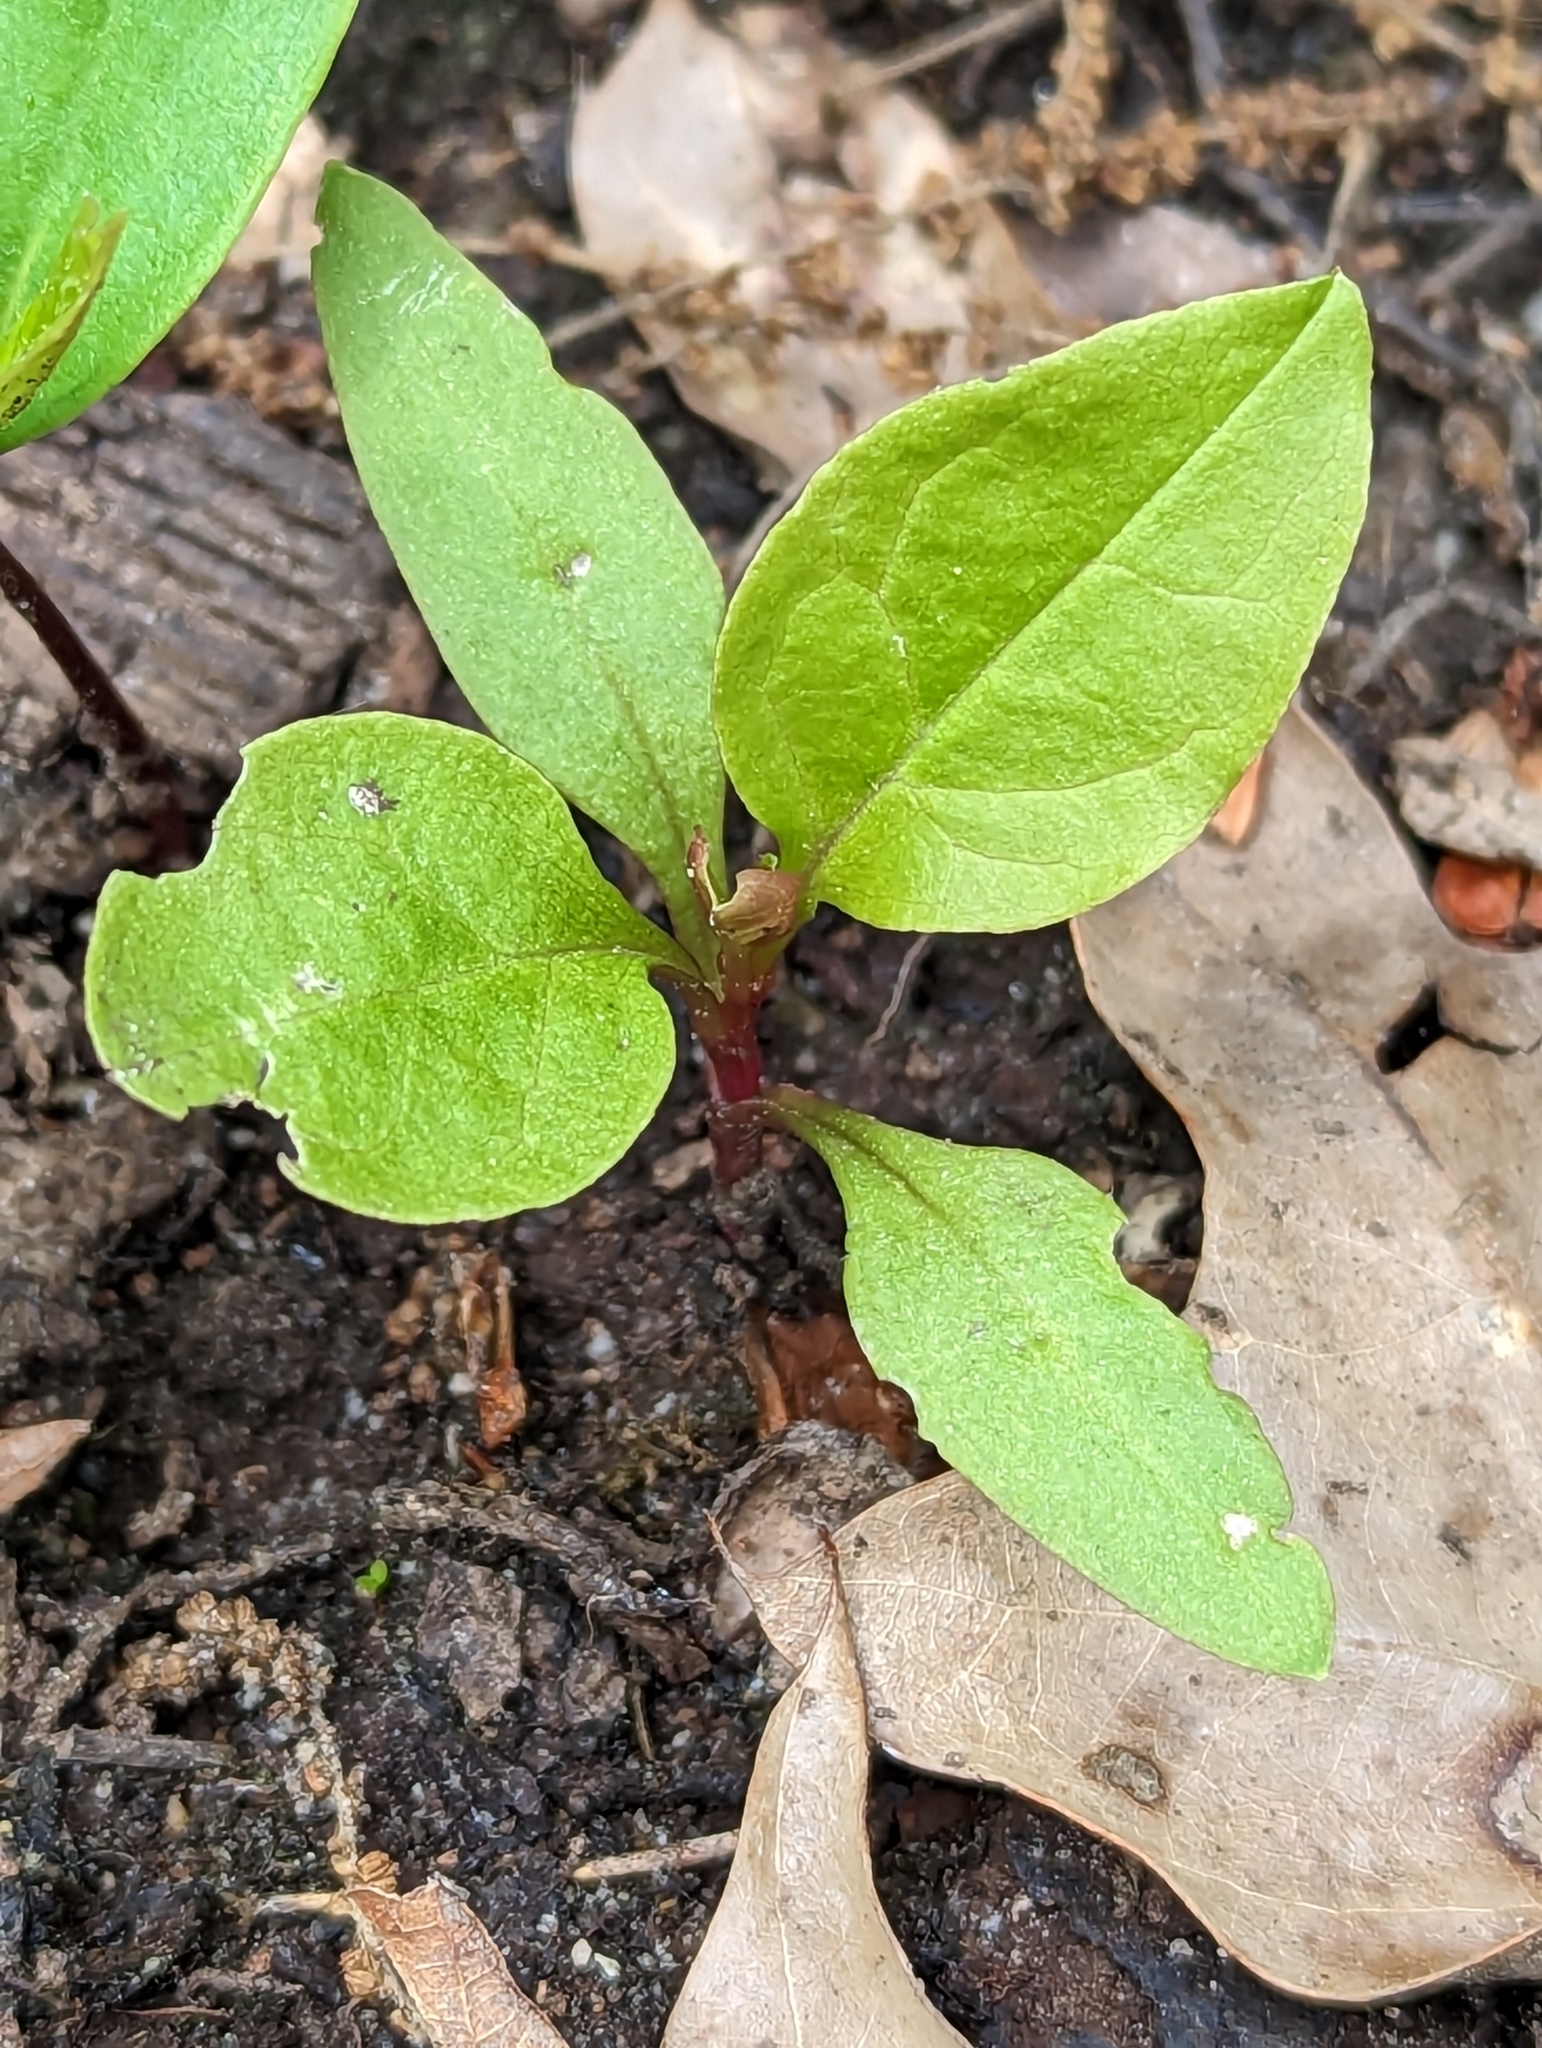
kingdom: Plantae
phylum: Tracheophyta
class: Magnoliopsida
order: Caryophyllales
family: Phytolaccaceae
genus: Phytolacca
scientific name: Phytolacca americana
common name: American pokeweed
